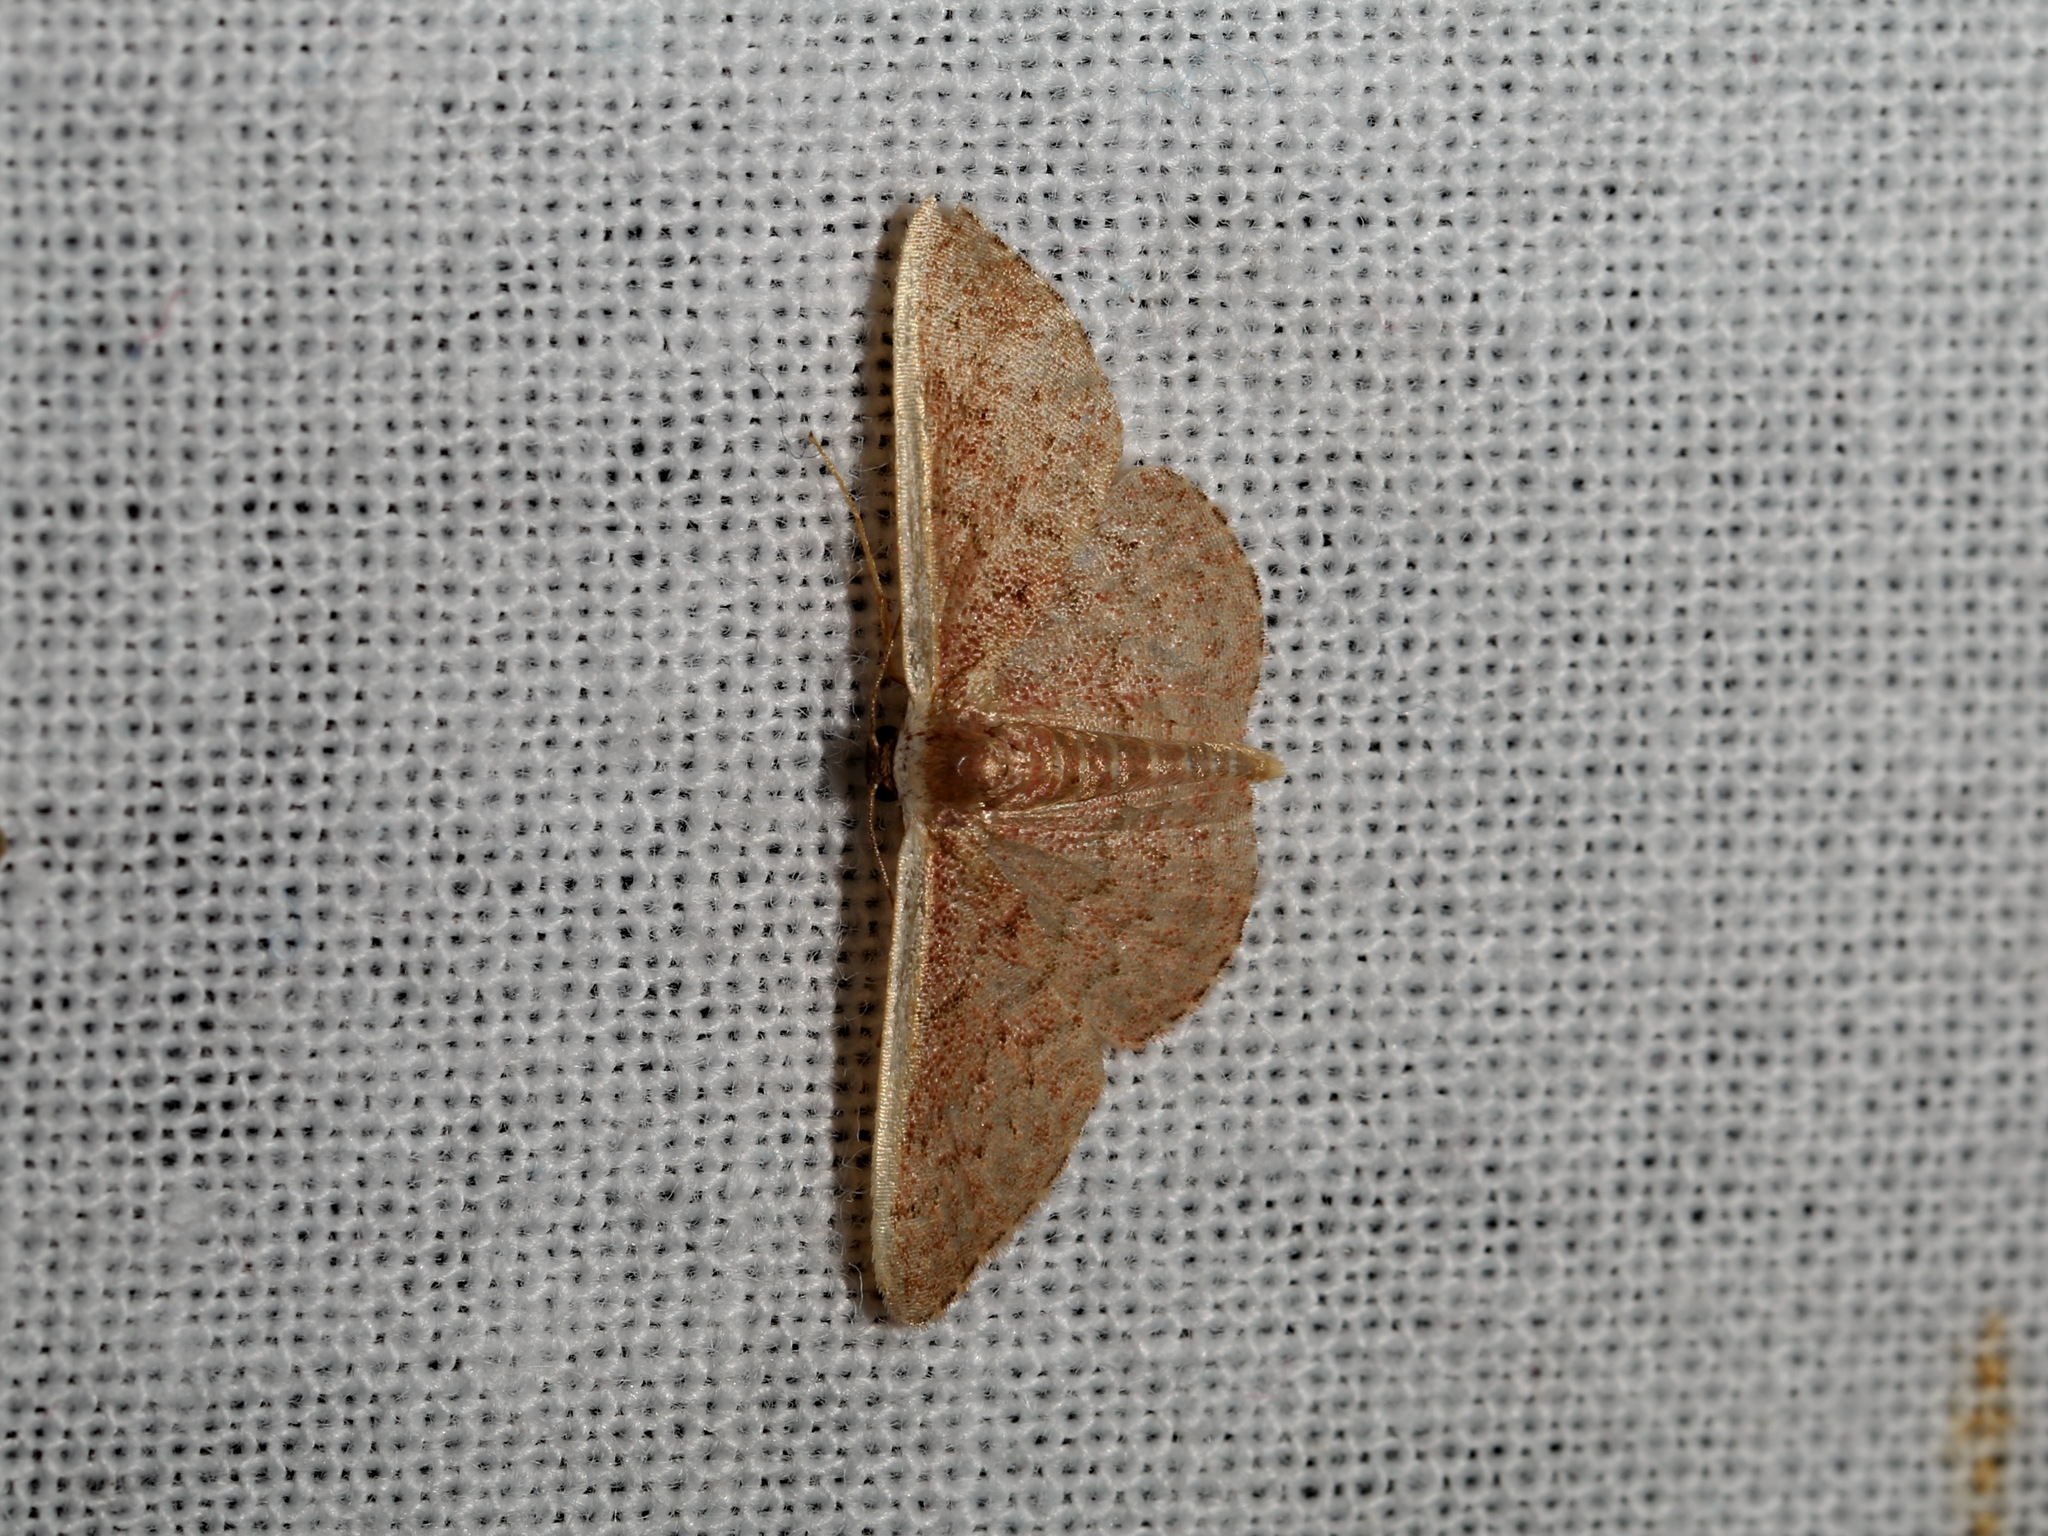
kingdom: Animalia
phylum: Arthropoda
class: Insecta
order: Lepidoptera
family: Geometridae
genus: Idaea
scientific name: Idaea inversata
